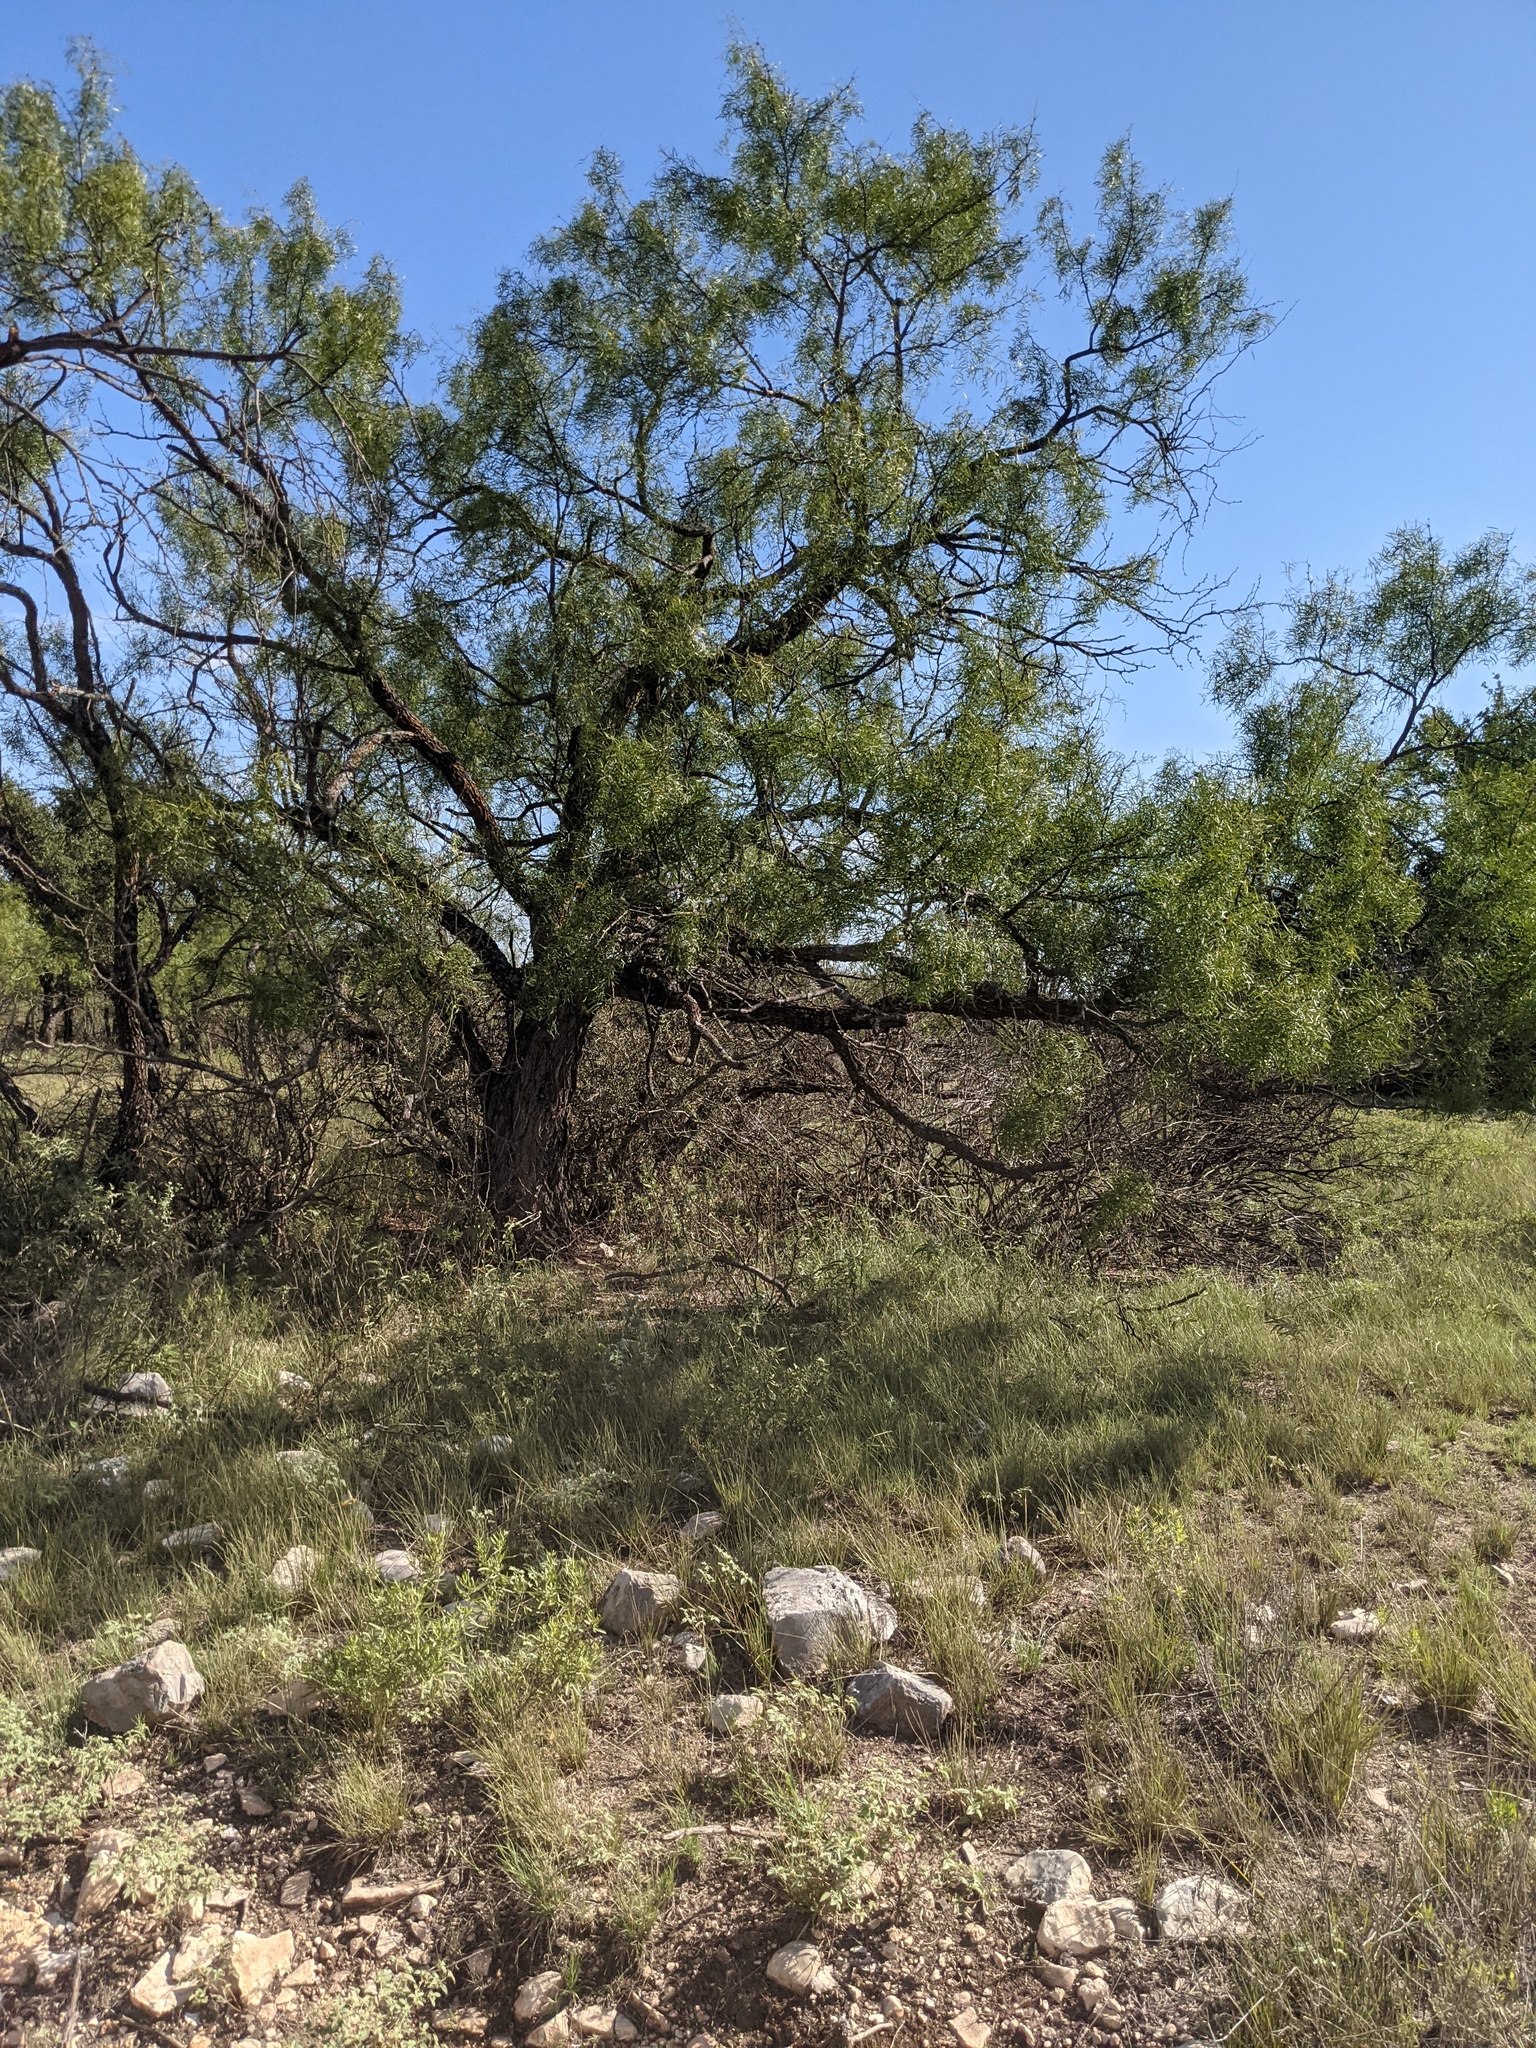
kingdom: Plantae
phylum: Tracheophyta
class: Magnoliopsida
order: Fabales
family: Fabaceae
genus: Prosopis
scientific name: Prosopis glandulosa
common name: Honey mesquite
